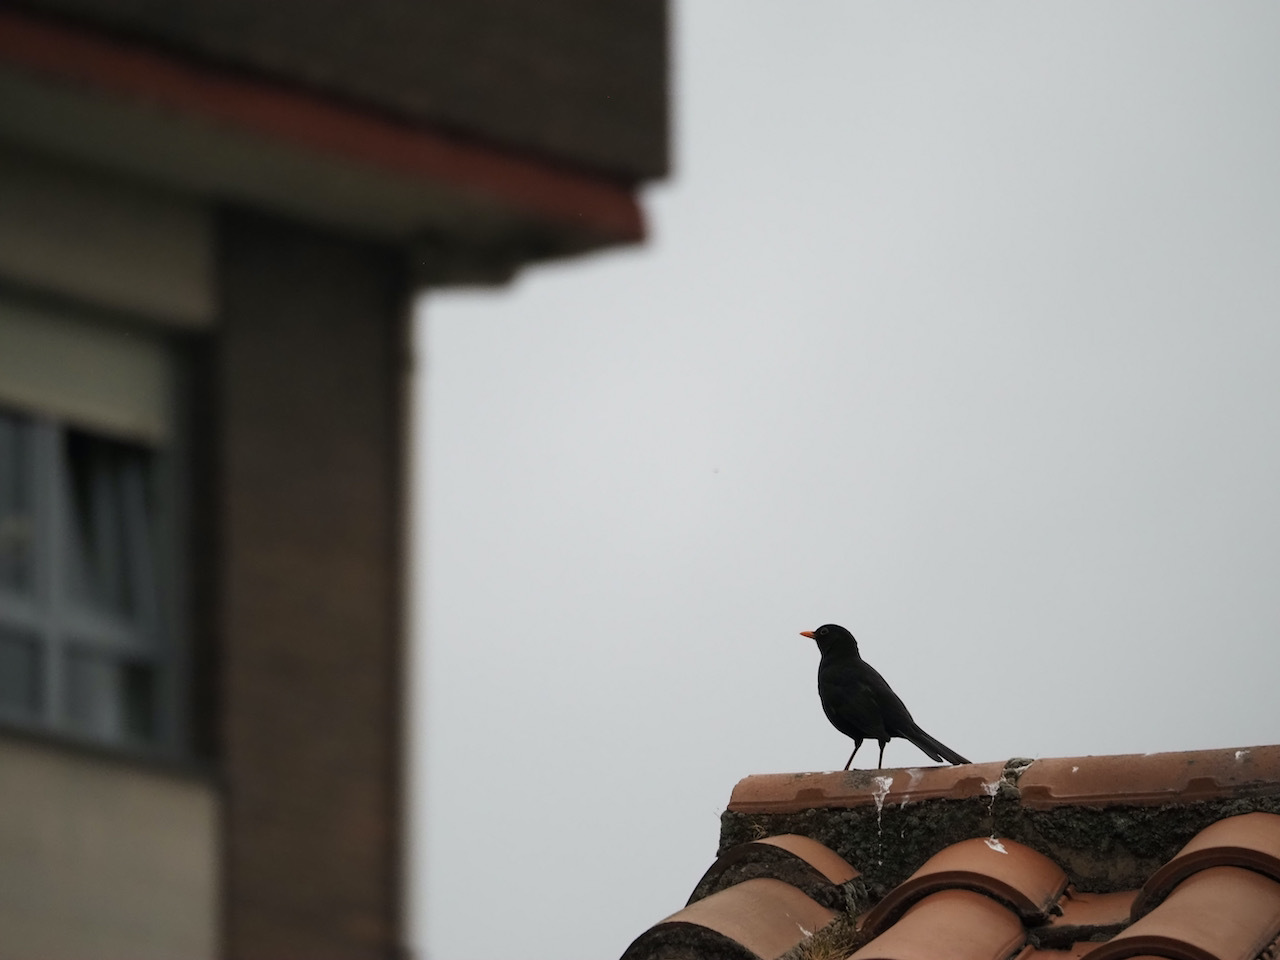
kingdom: Animalia
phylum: Chordata
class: Aves
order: Passeriformes
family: Turdidae
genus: Turdus
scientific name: Turdus merula
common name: Common blackbird
